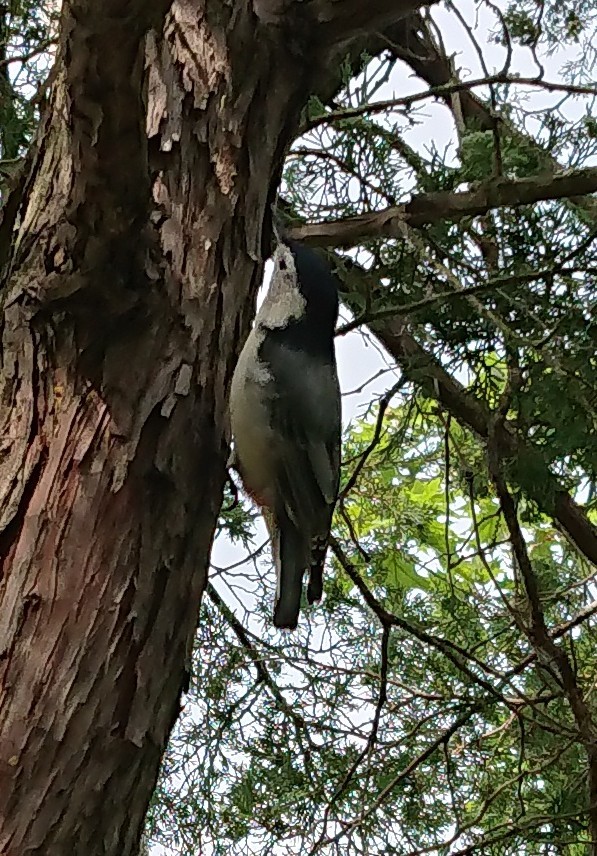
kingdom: Animalia
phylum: Chordata
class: Aves
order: Passeriformes
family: Sittidae
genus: Sitta
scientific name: Sitta carolinensis
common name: White-breasted nuthatch
